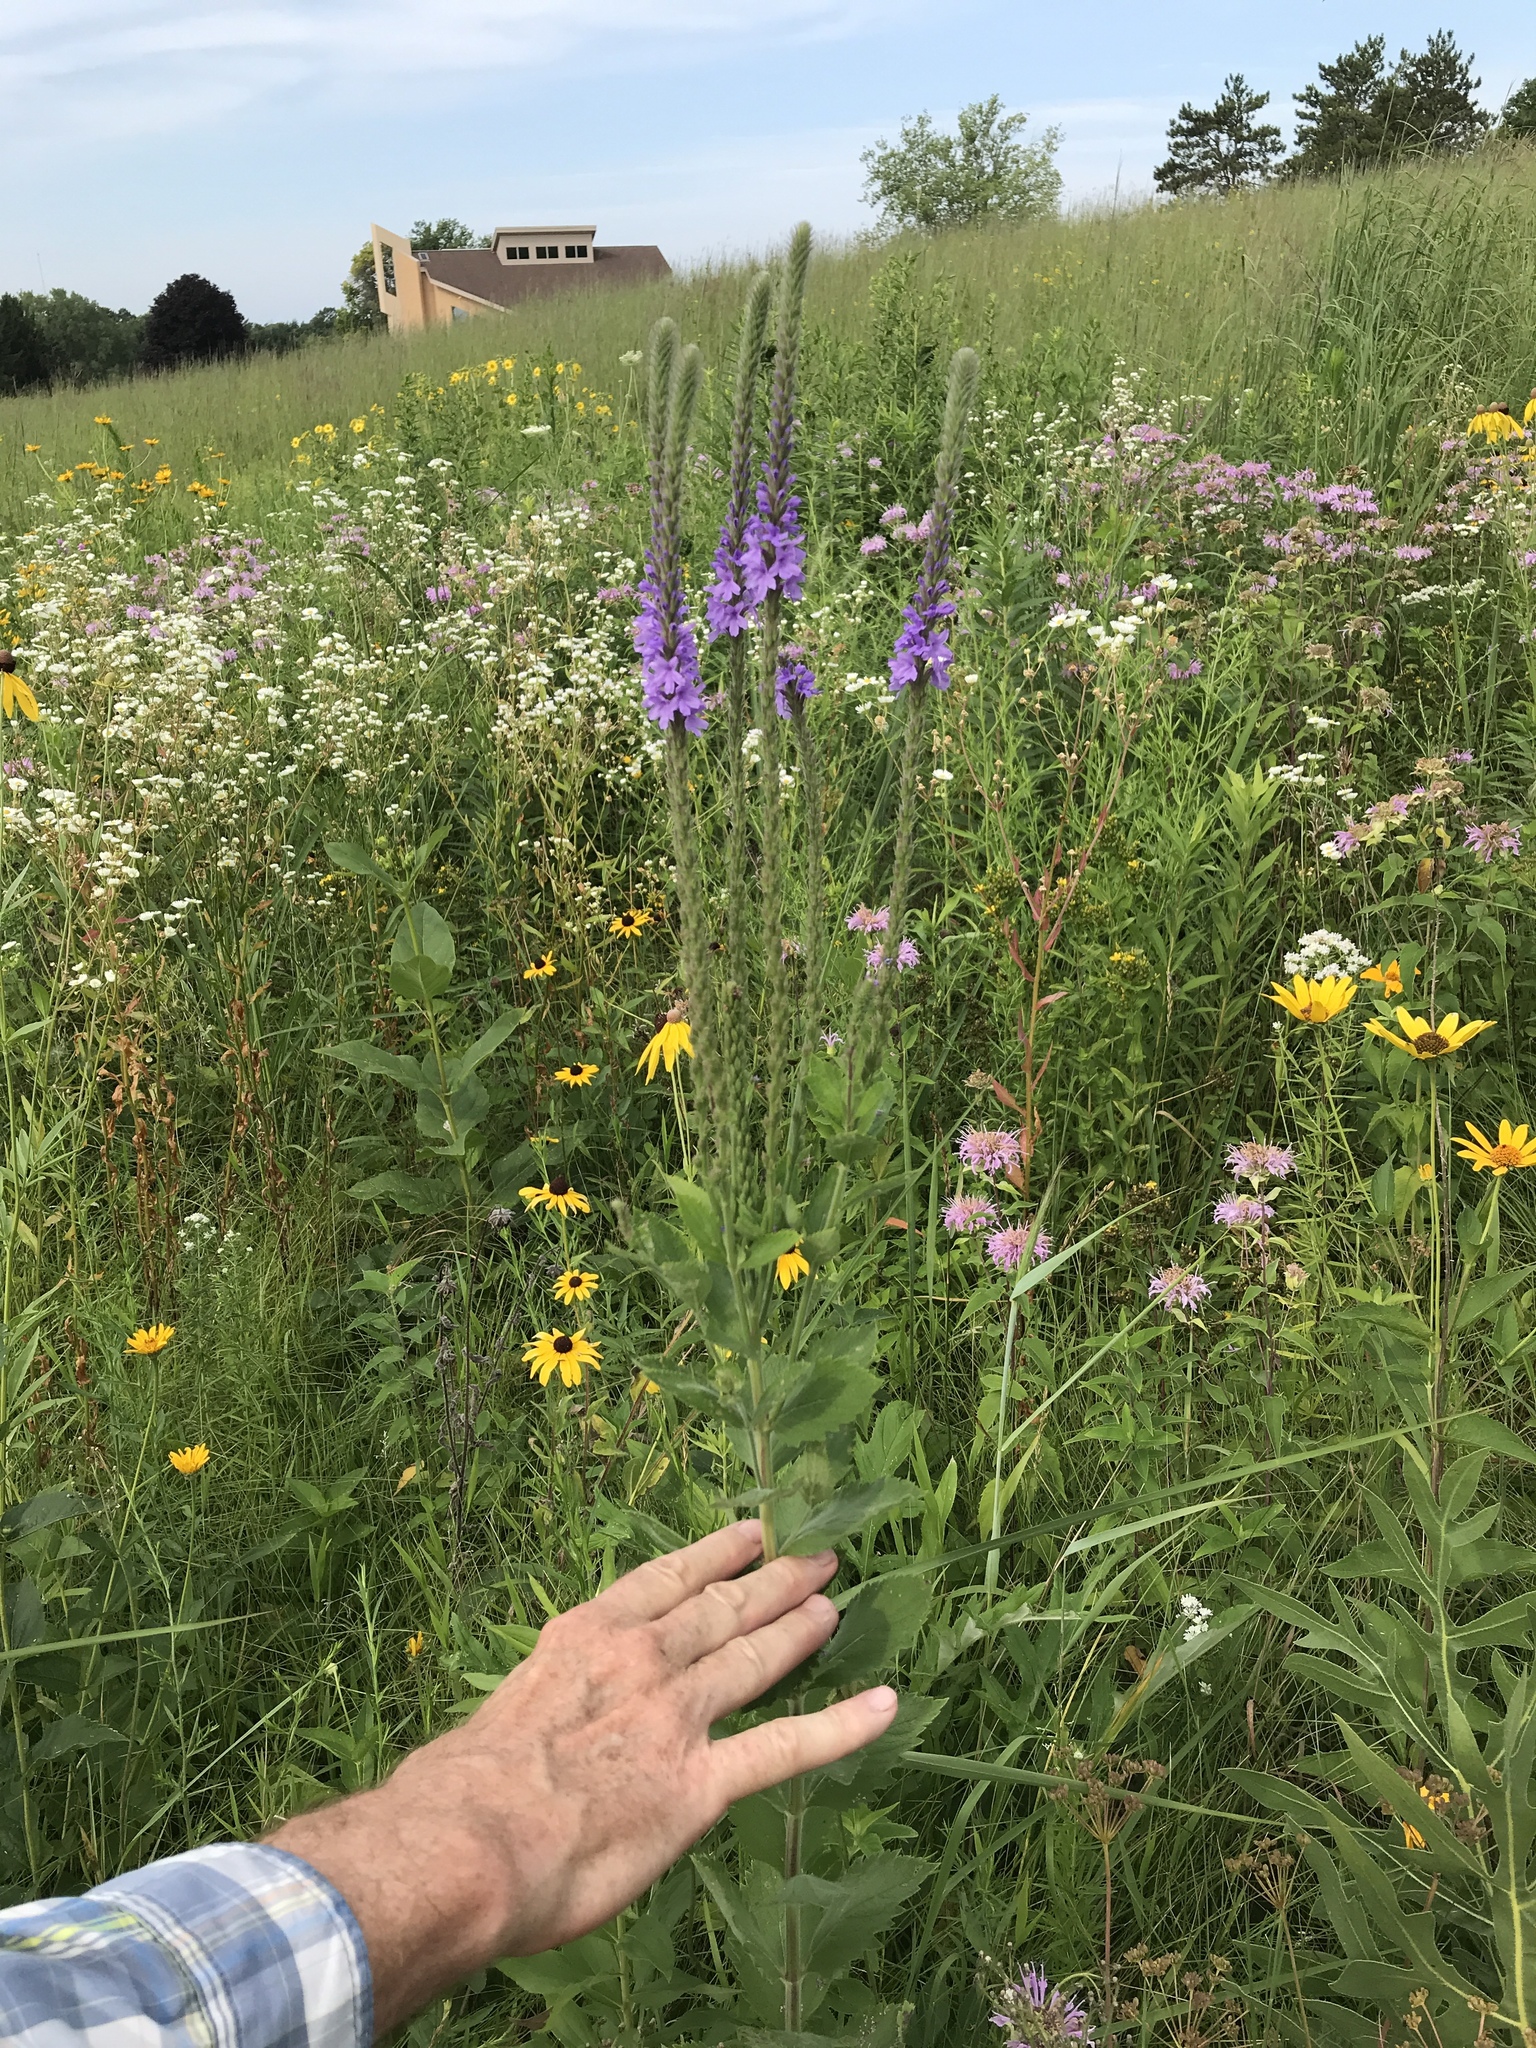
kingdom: Plantae
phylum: Tracheophyta
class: Magnoliopsida
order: Lamiales
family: Verbenaceae
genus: Verbena
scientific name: Verbena stricta
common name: Hoary vervain
